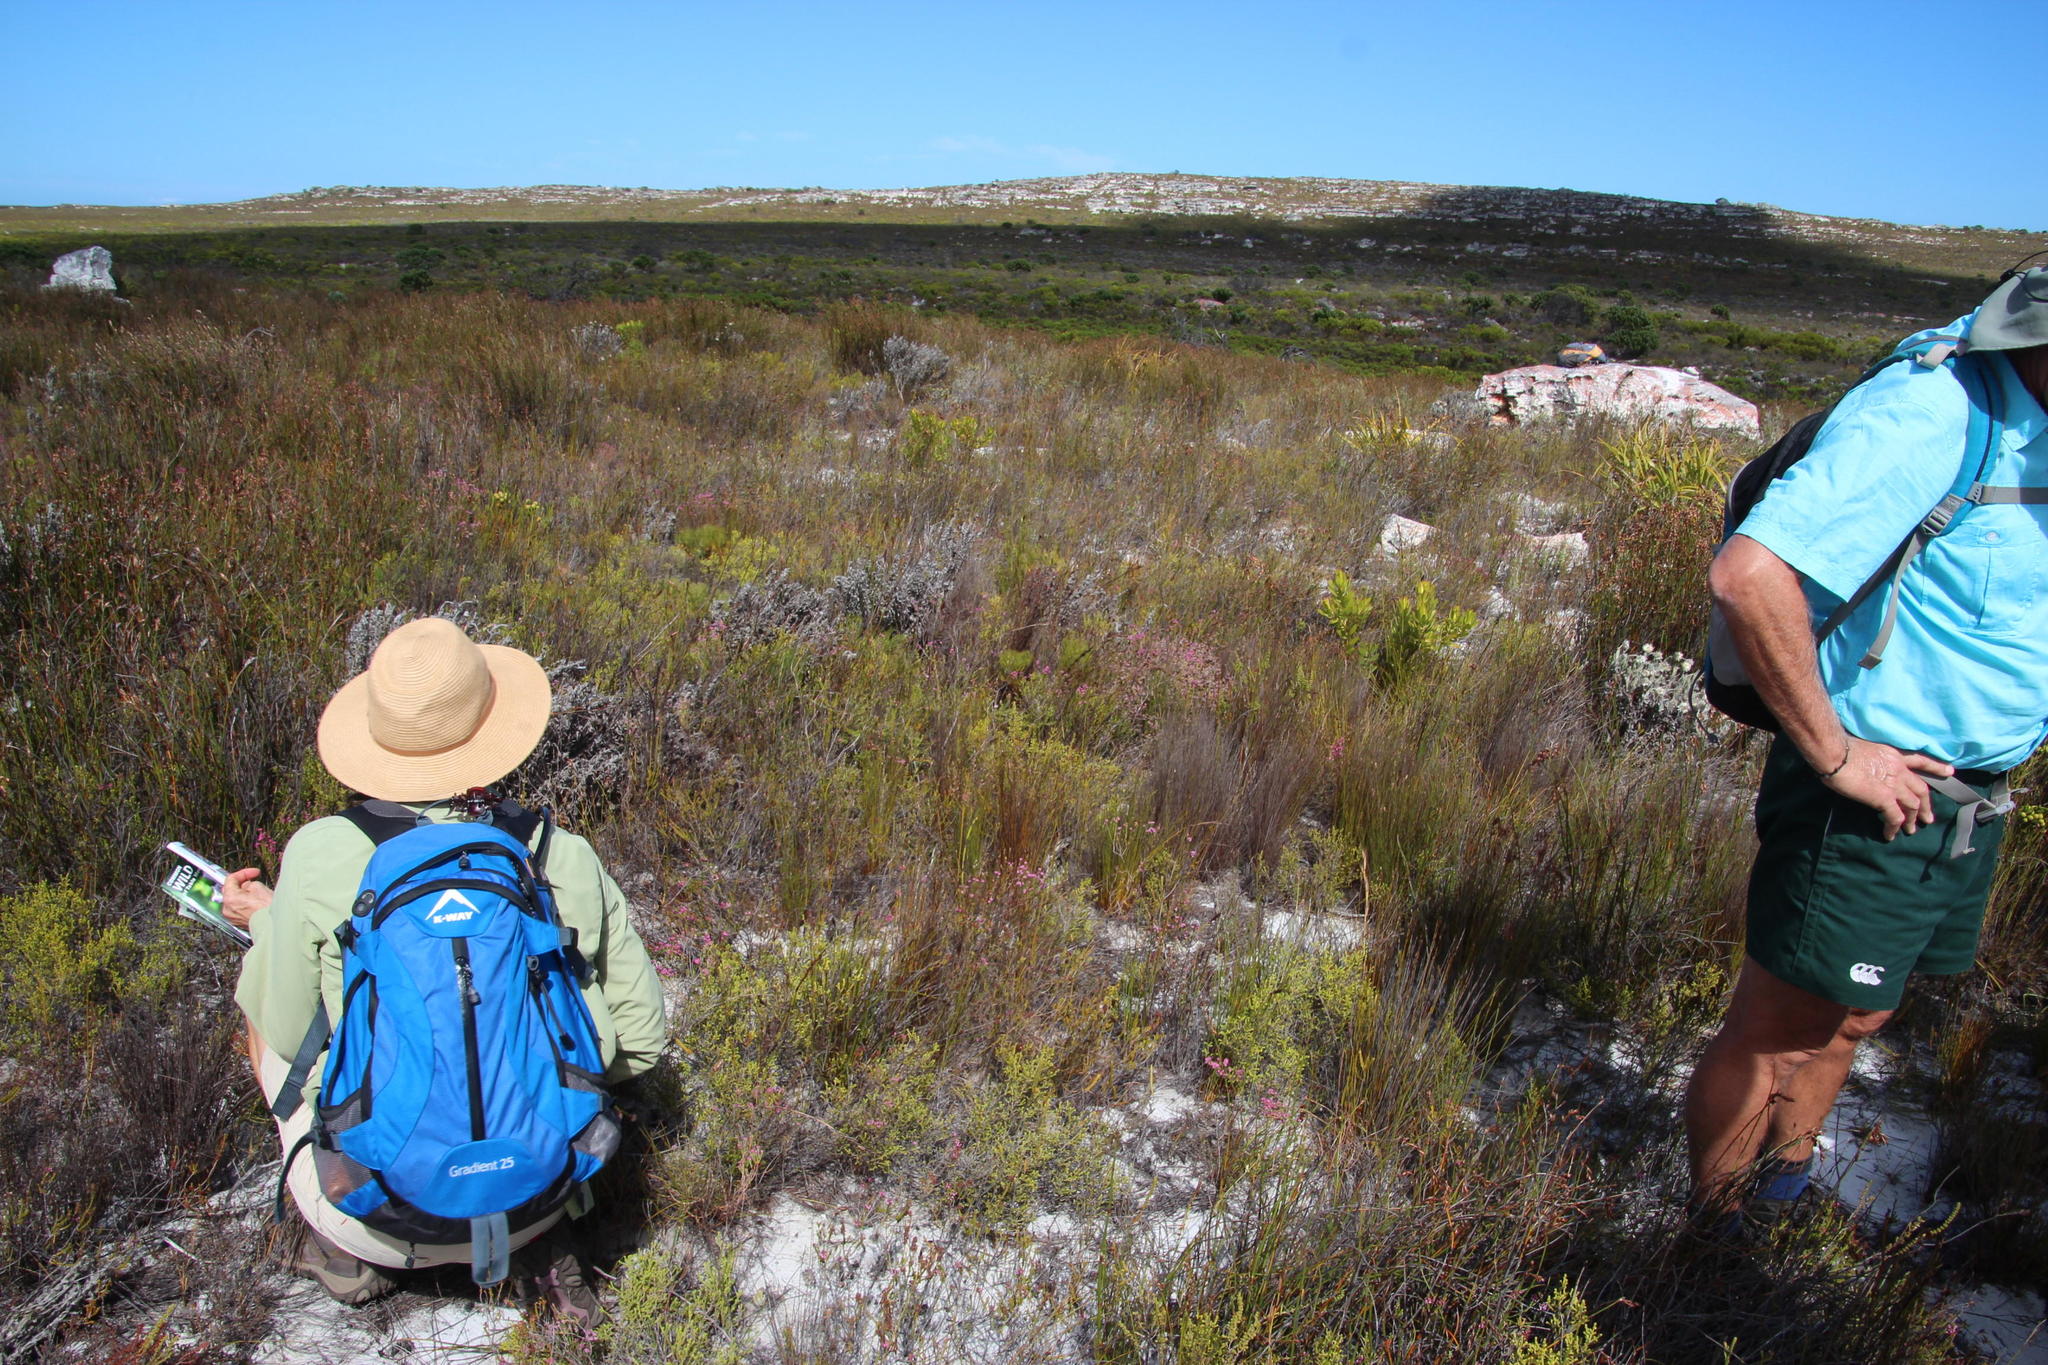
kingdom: Plantae
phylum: Tracheophyta
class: Magnoliopsida
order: Ericales
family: Ericaceae
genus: Erica
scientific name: Erica corifolia
